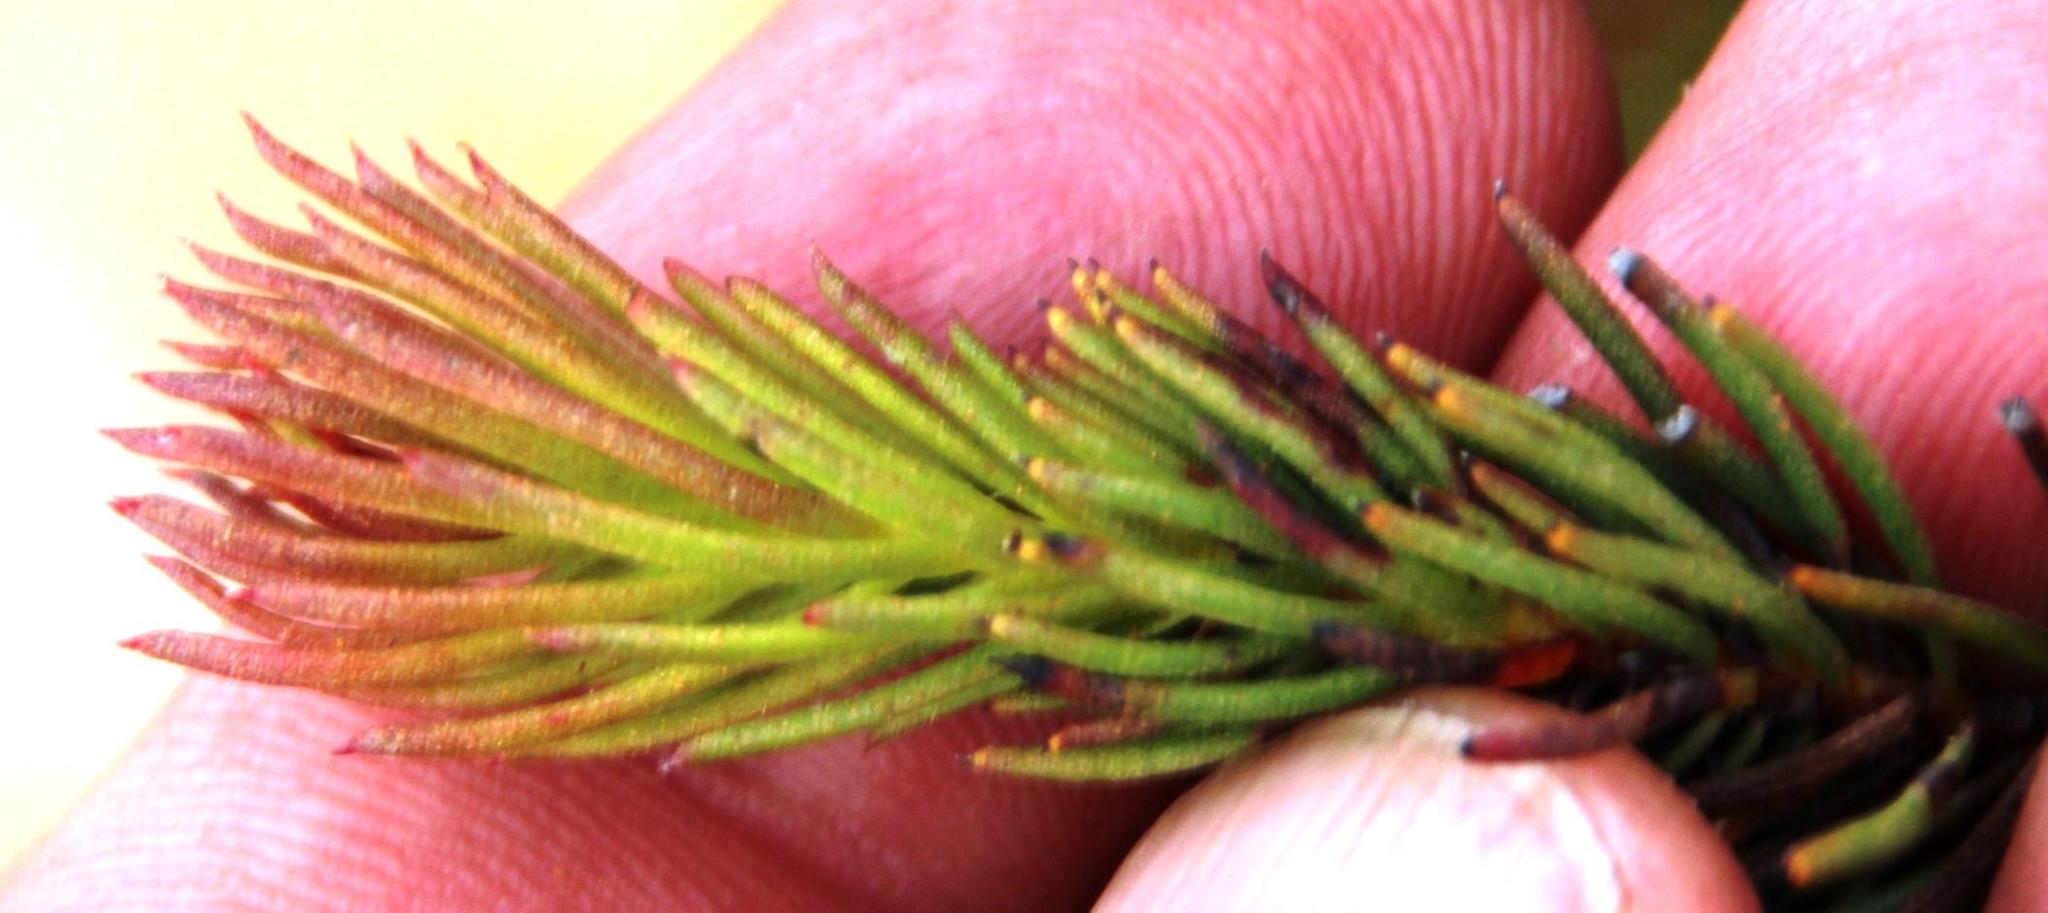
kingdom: Plantae
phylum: Tracheophyta
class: Magnoliopsida
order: Proteales
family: Proteaceae
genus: Protea
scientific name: Protea subulifolia
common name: Awl-leaf sugarbush
